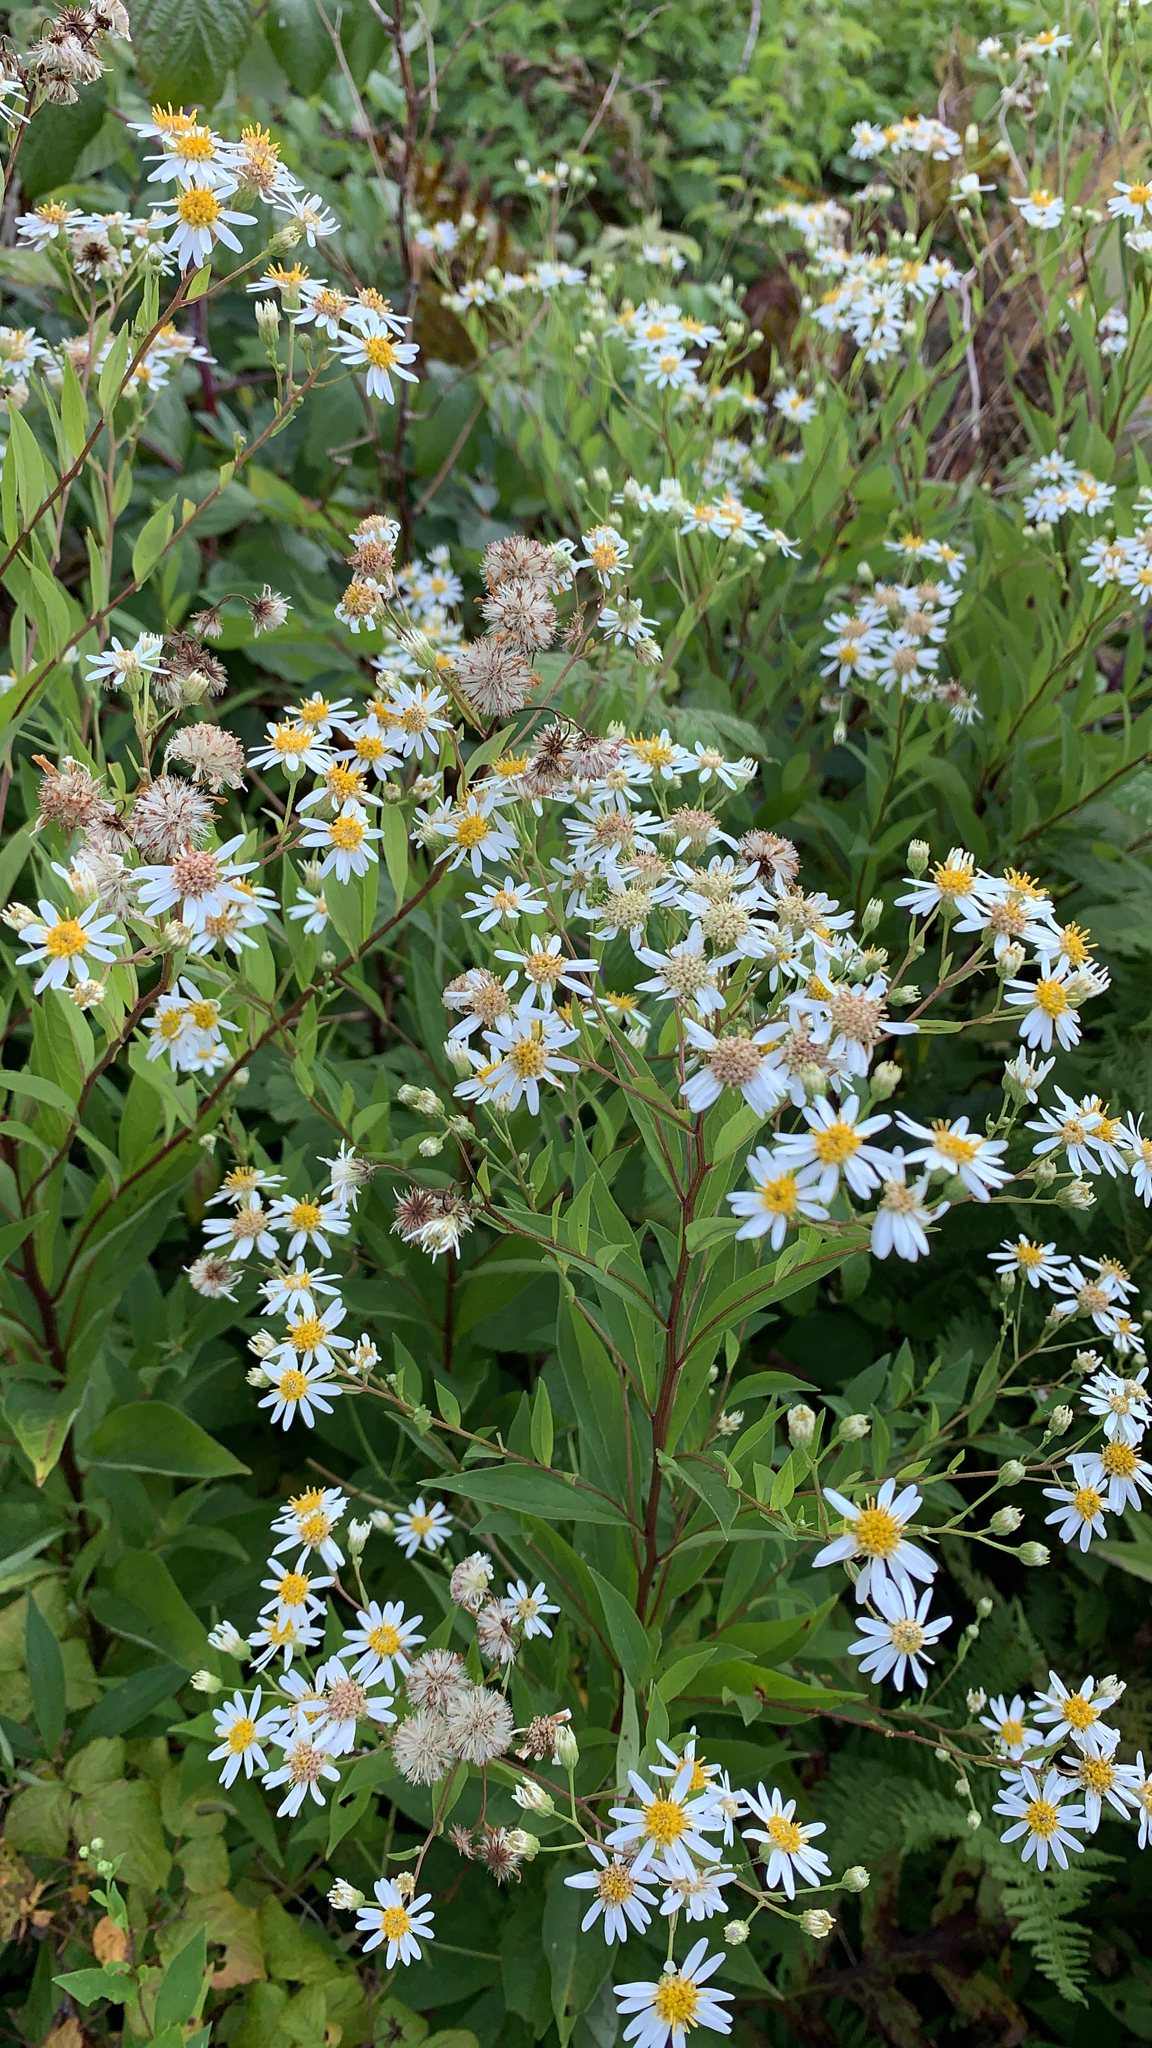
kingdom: Plantae
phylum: Tracheophyta
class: Magnoliopsida
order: Asterales
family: Asteraceae
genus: Doellingeria
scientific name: Doellingeria umbellata
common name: Flat-top white aster
